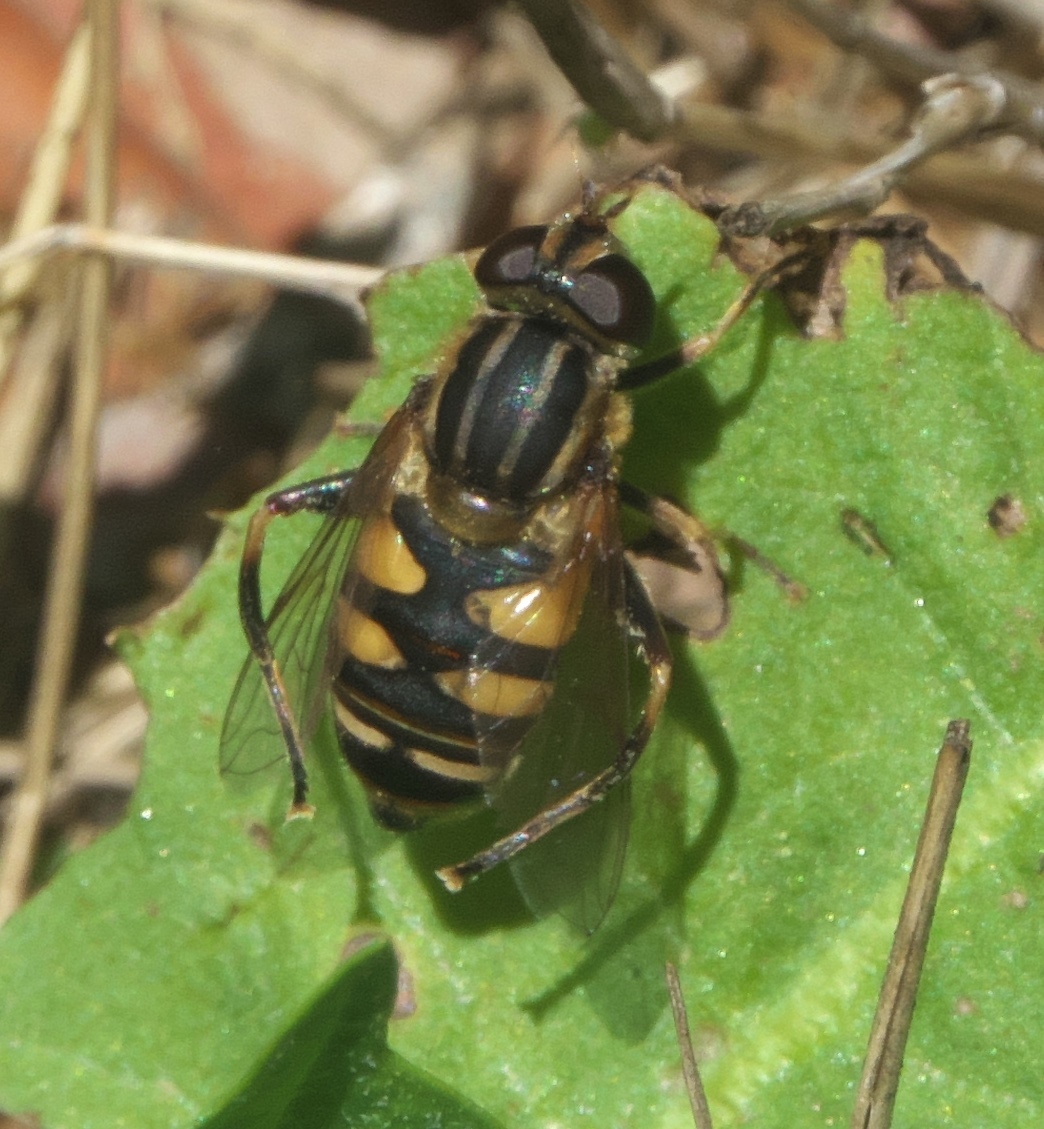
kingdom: Animalia
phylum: Arthropoda
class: Insecta
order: Diptera
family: Syrphidae
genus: Helophilus
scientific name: Helophilus fasciatus
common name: Narrow-headed marsh fly
